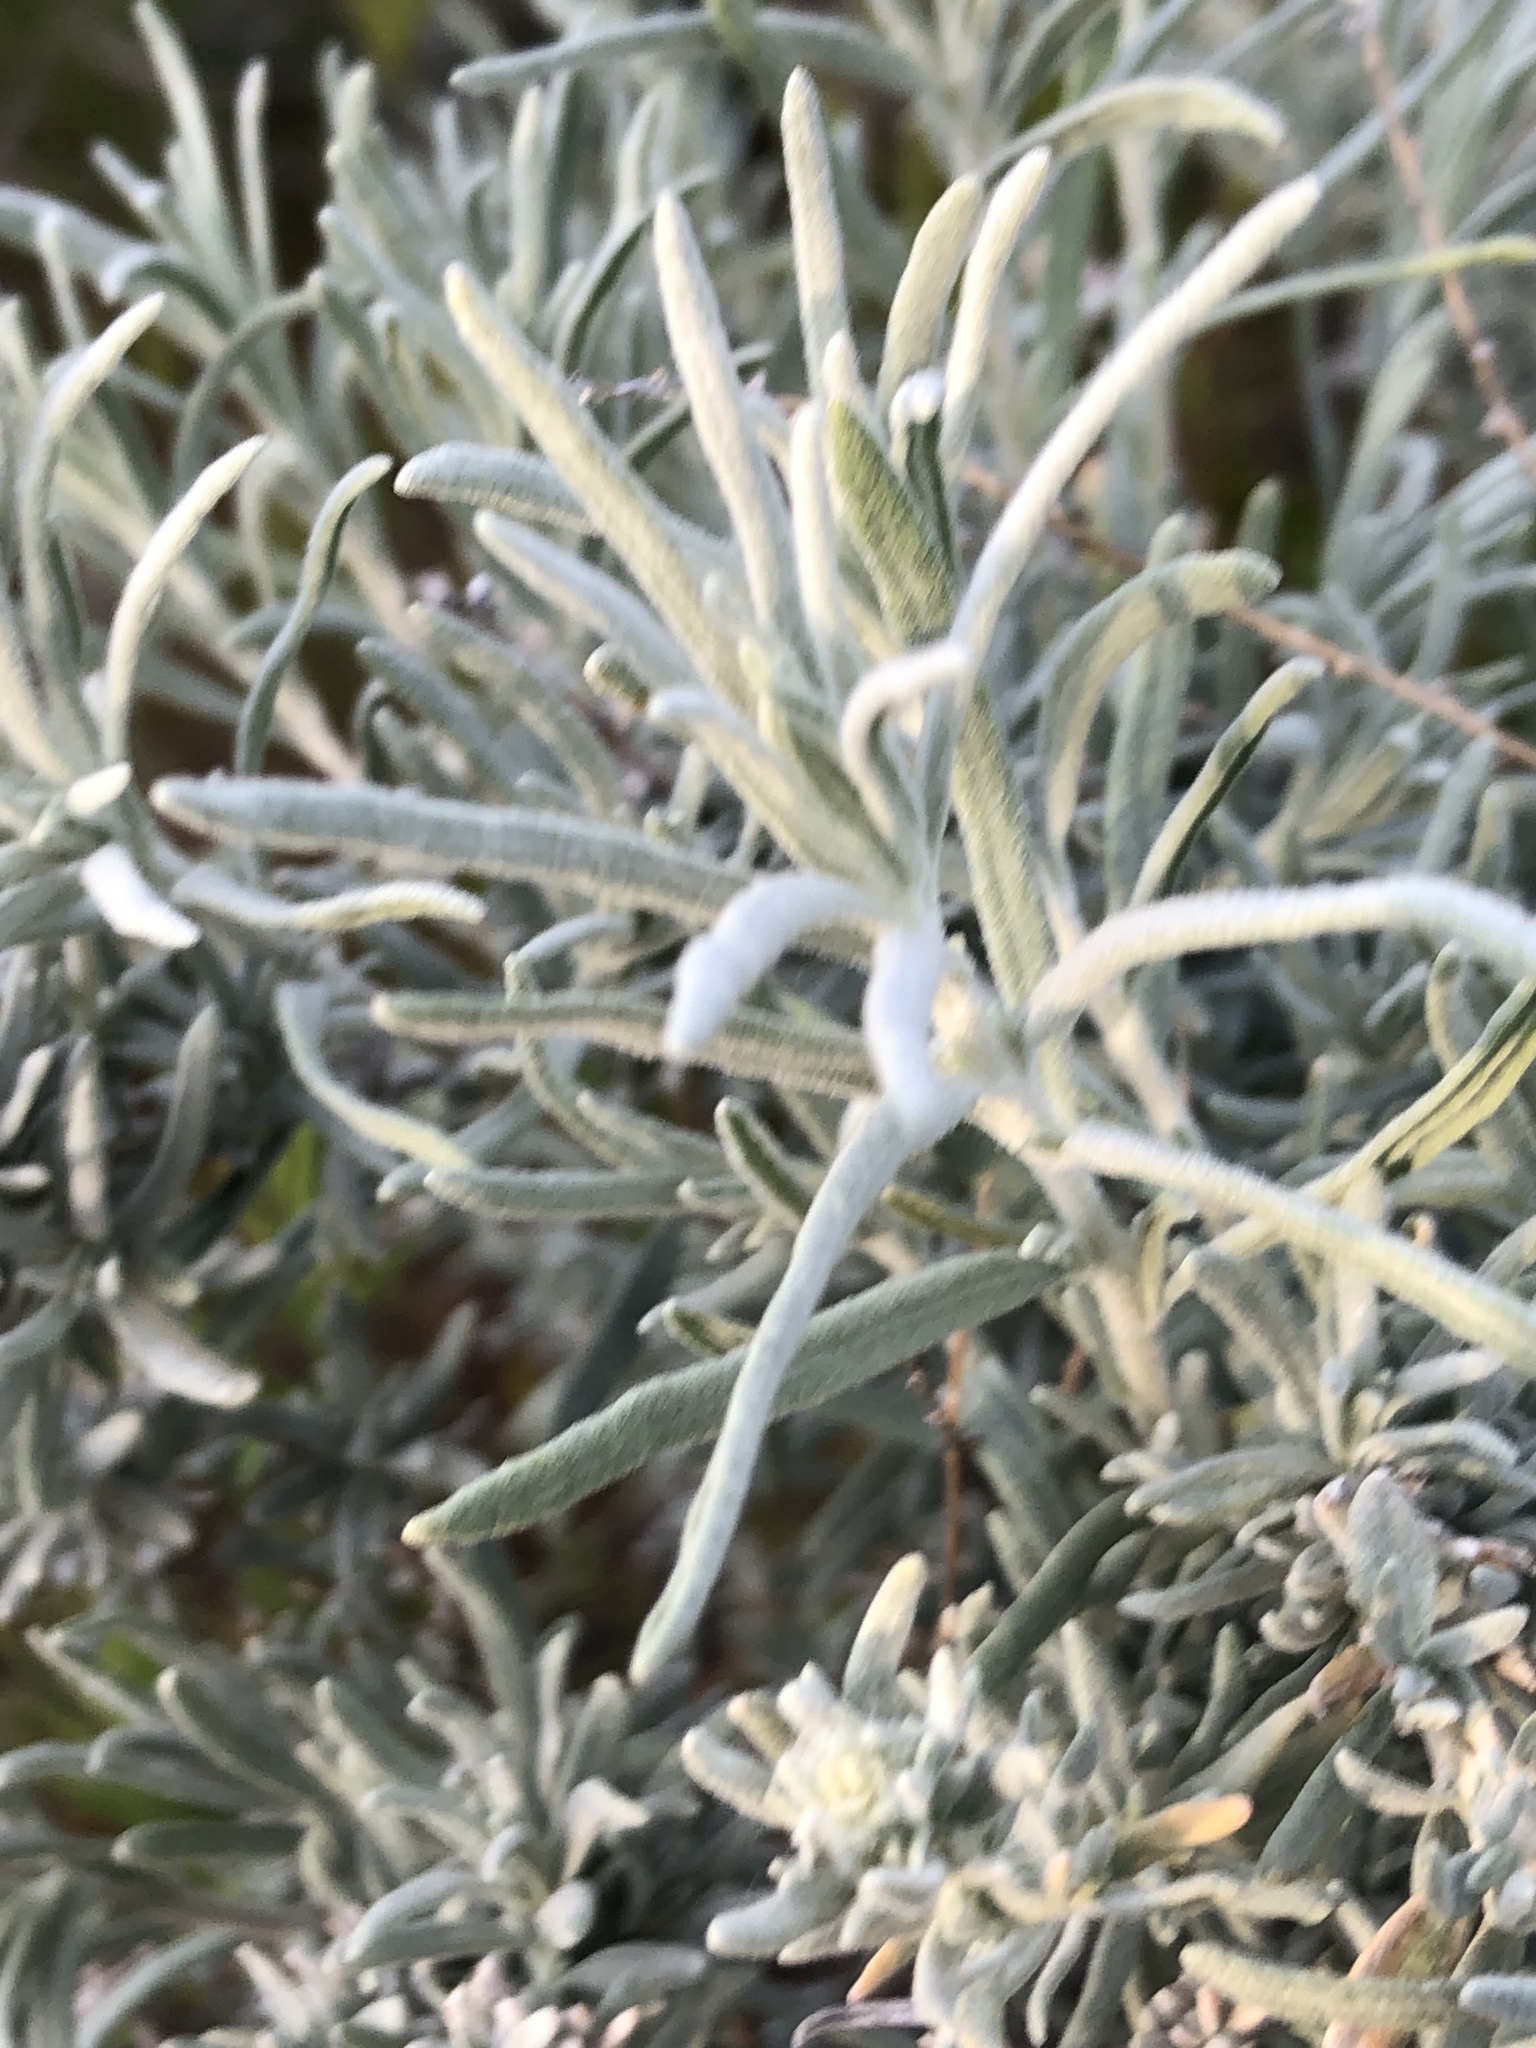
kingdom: Plantae
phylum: Tracheophyta
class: Magnoliopsida
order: Caryophyllales
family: Amaranthaceae
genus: Krascheninnikovia
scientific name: Krascheninnikovia lanata
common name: Winterfat
